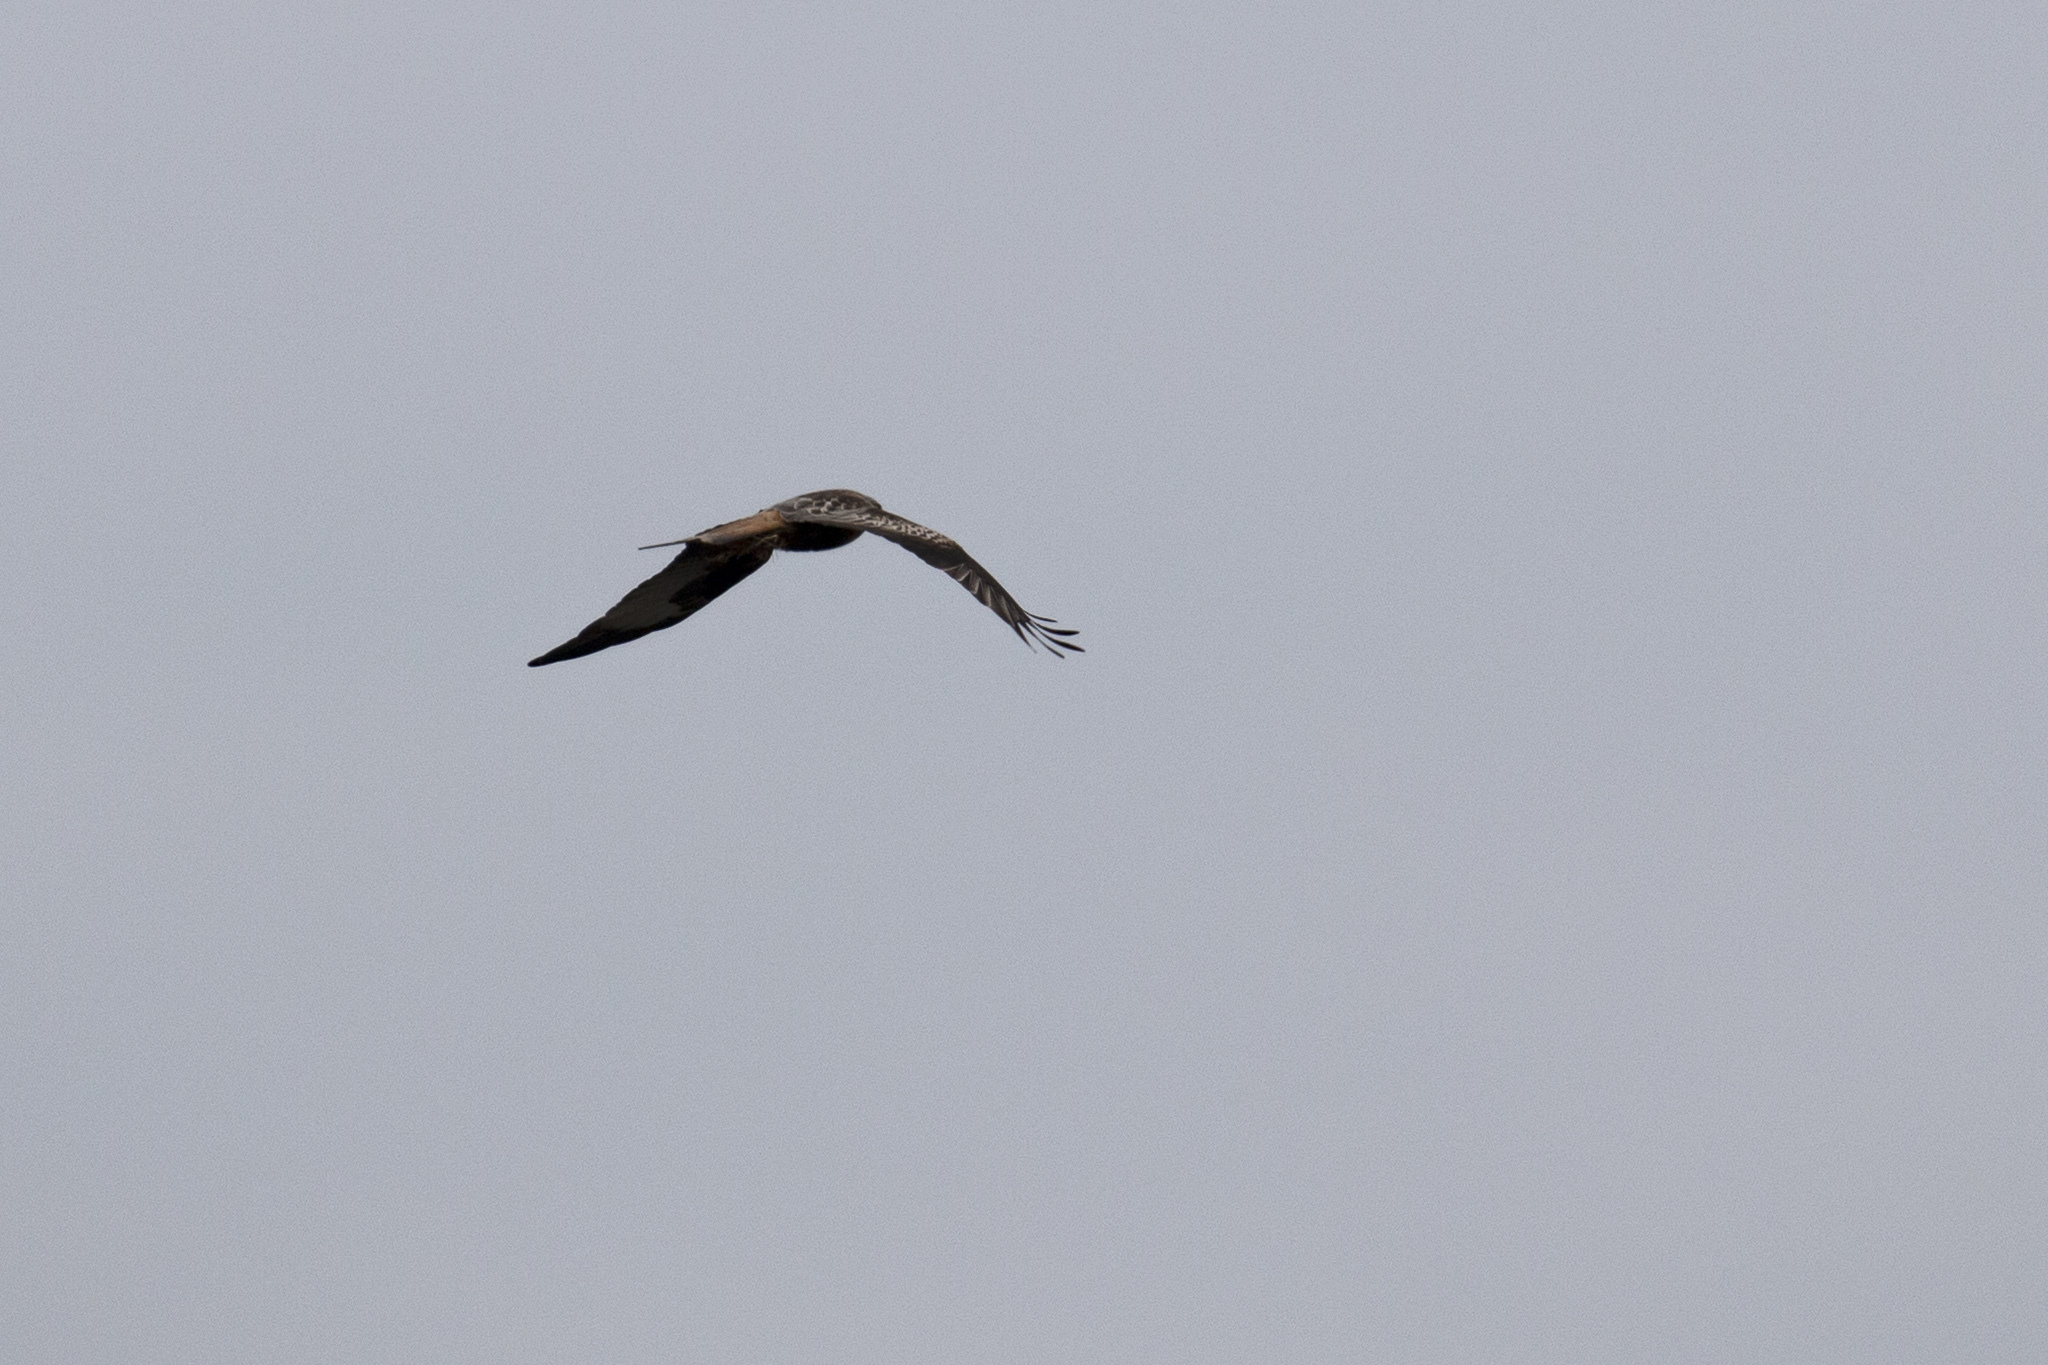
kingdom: Animalia
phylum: Chordata
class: Aves
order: Accipitriformes
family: Accipitridae
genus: Milvus
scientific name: Milvus milvus
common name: Red kite
